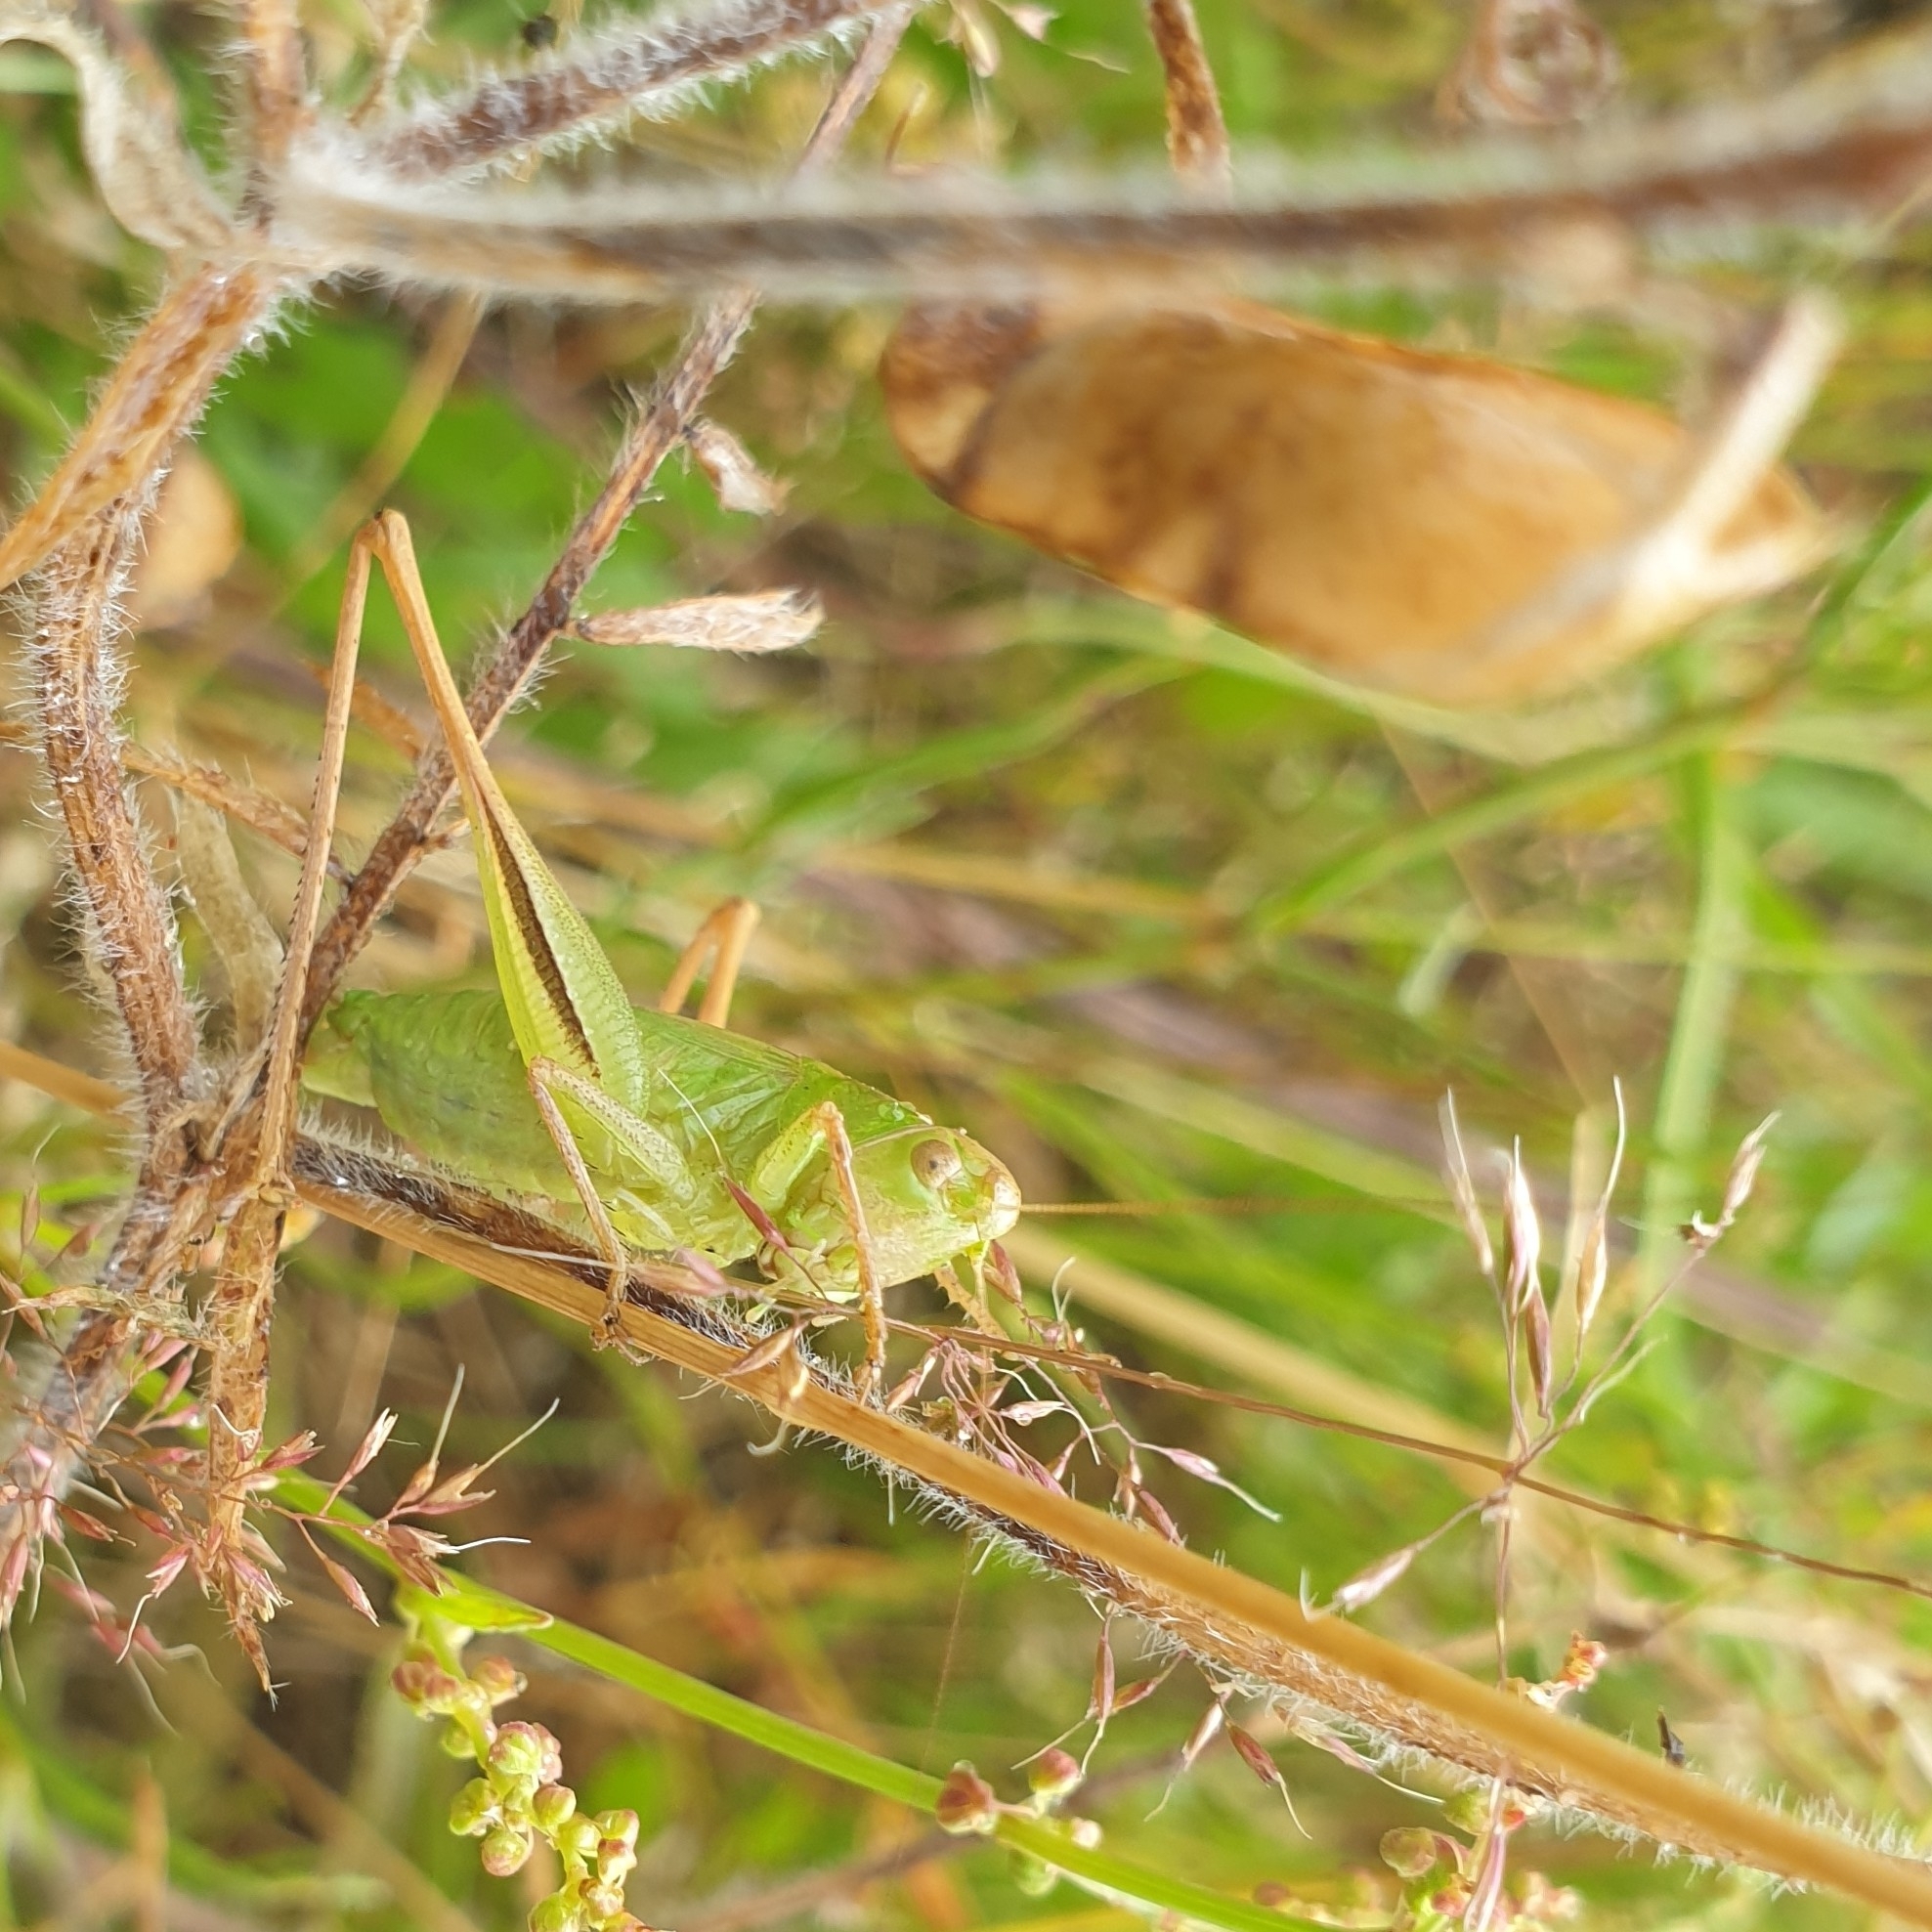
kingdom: Animalia
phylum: Arthropoda
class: Insecta
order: Orthoptera
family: Tettigoniidae
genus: Bicolorana
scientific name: Bicolorana bicolor
